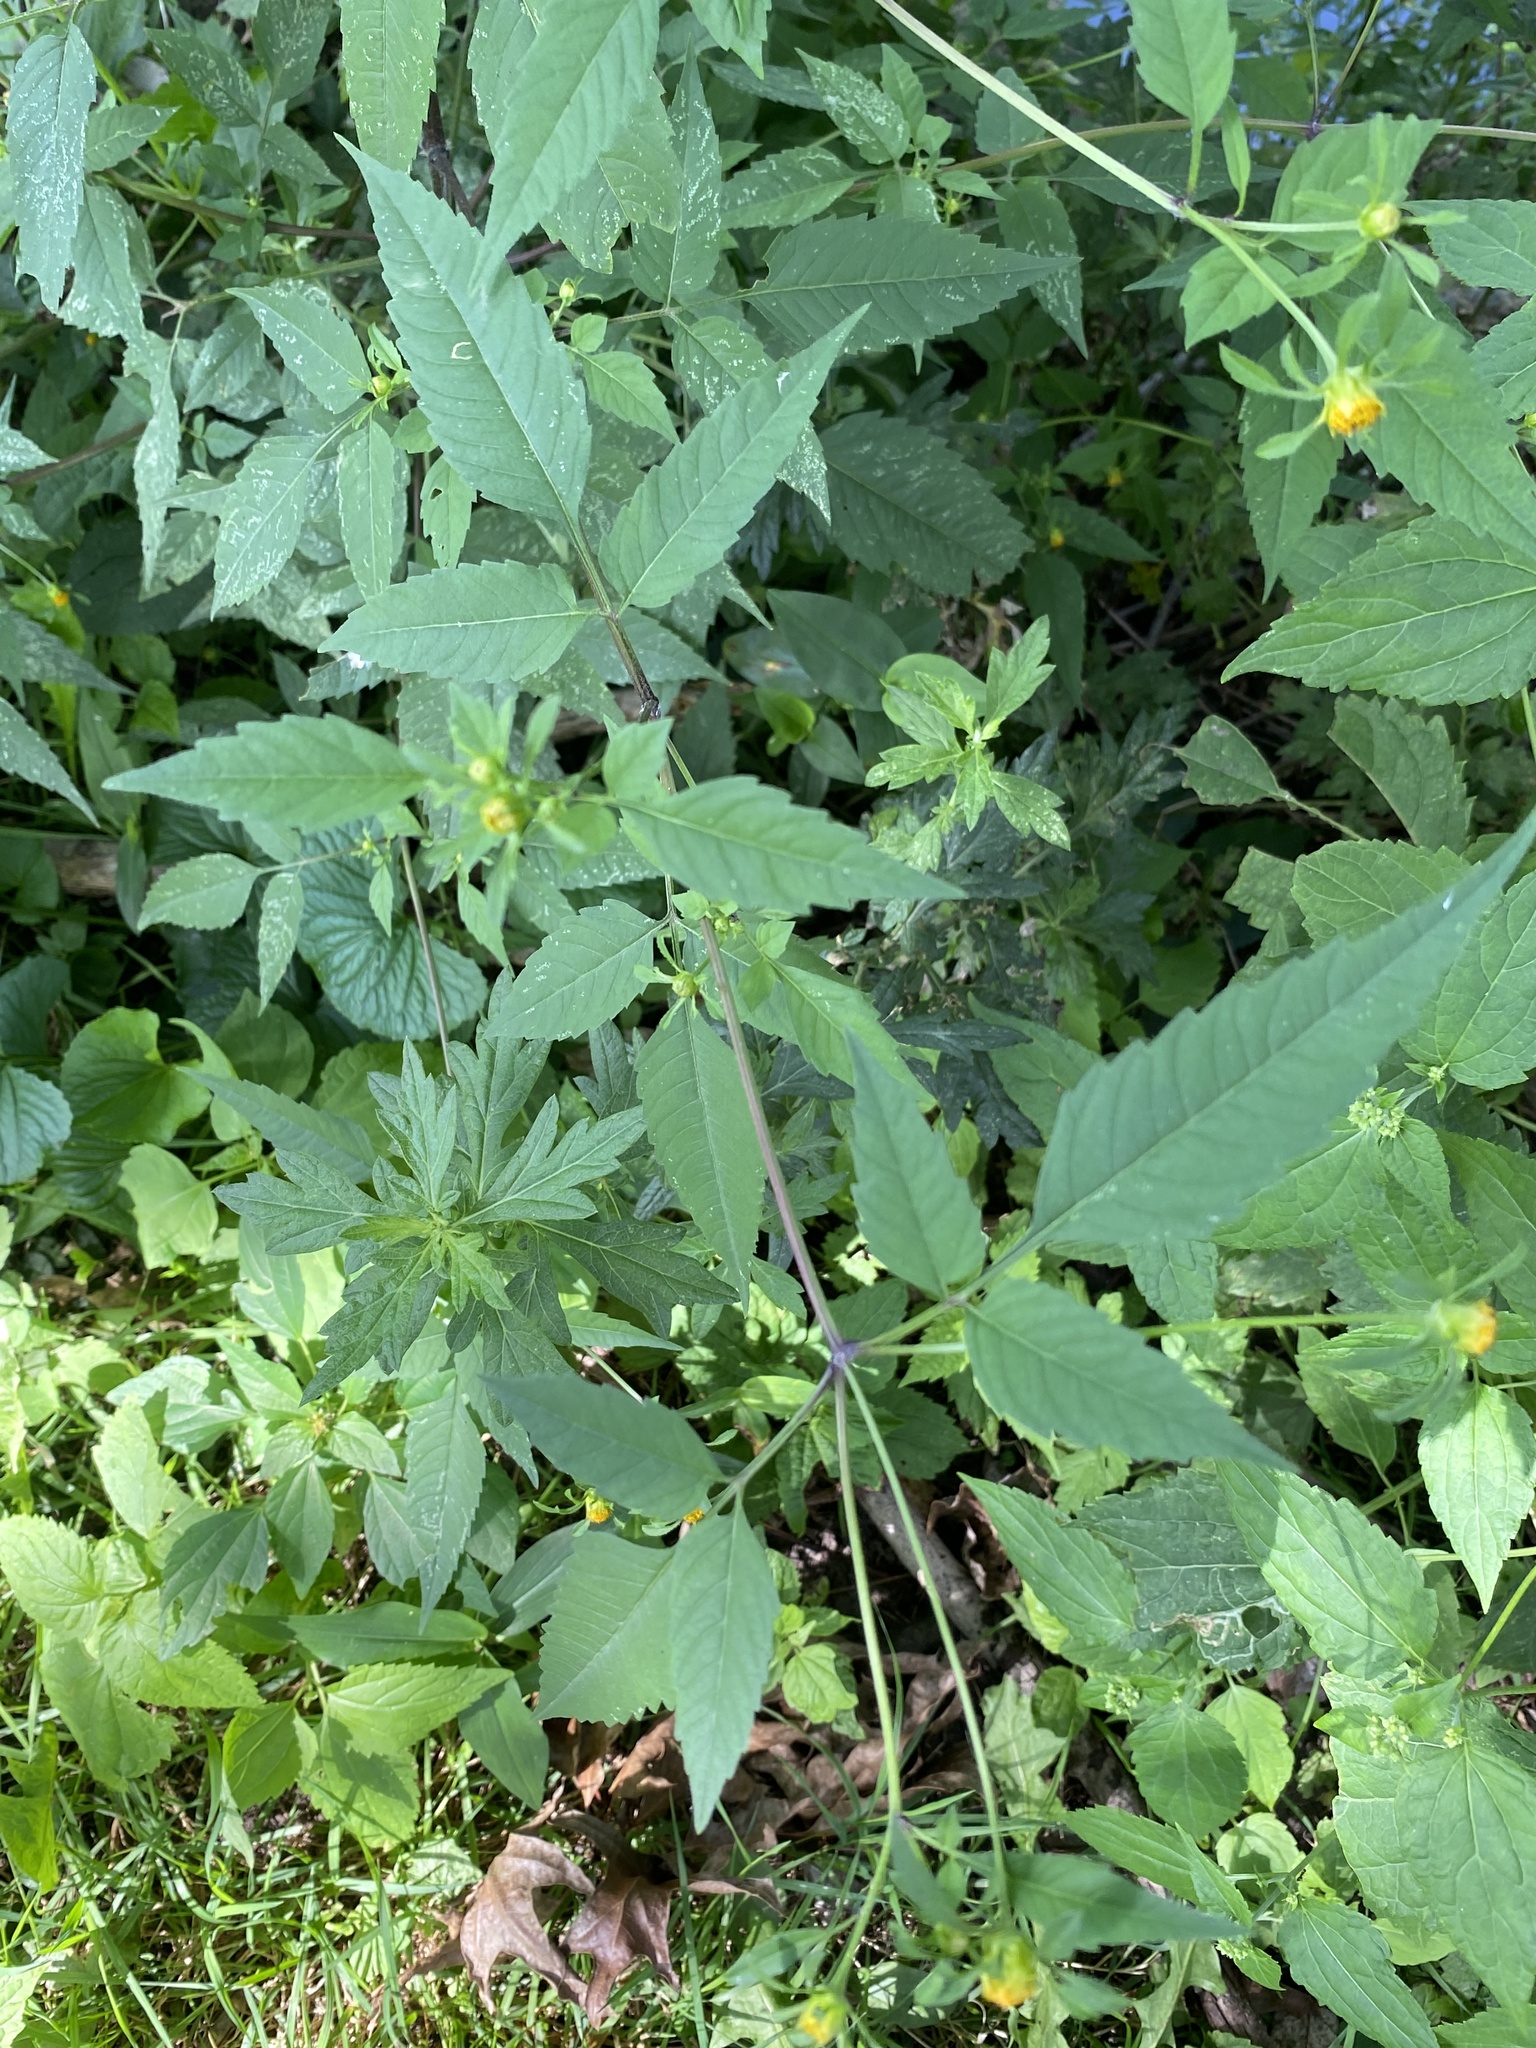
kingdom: Plantae
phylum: Tracheophyta
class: Magnoliopsida
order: Asterales
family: Asteraceae
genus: Bidens
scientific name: Bidens frondosa
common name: Beggarticks
